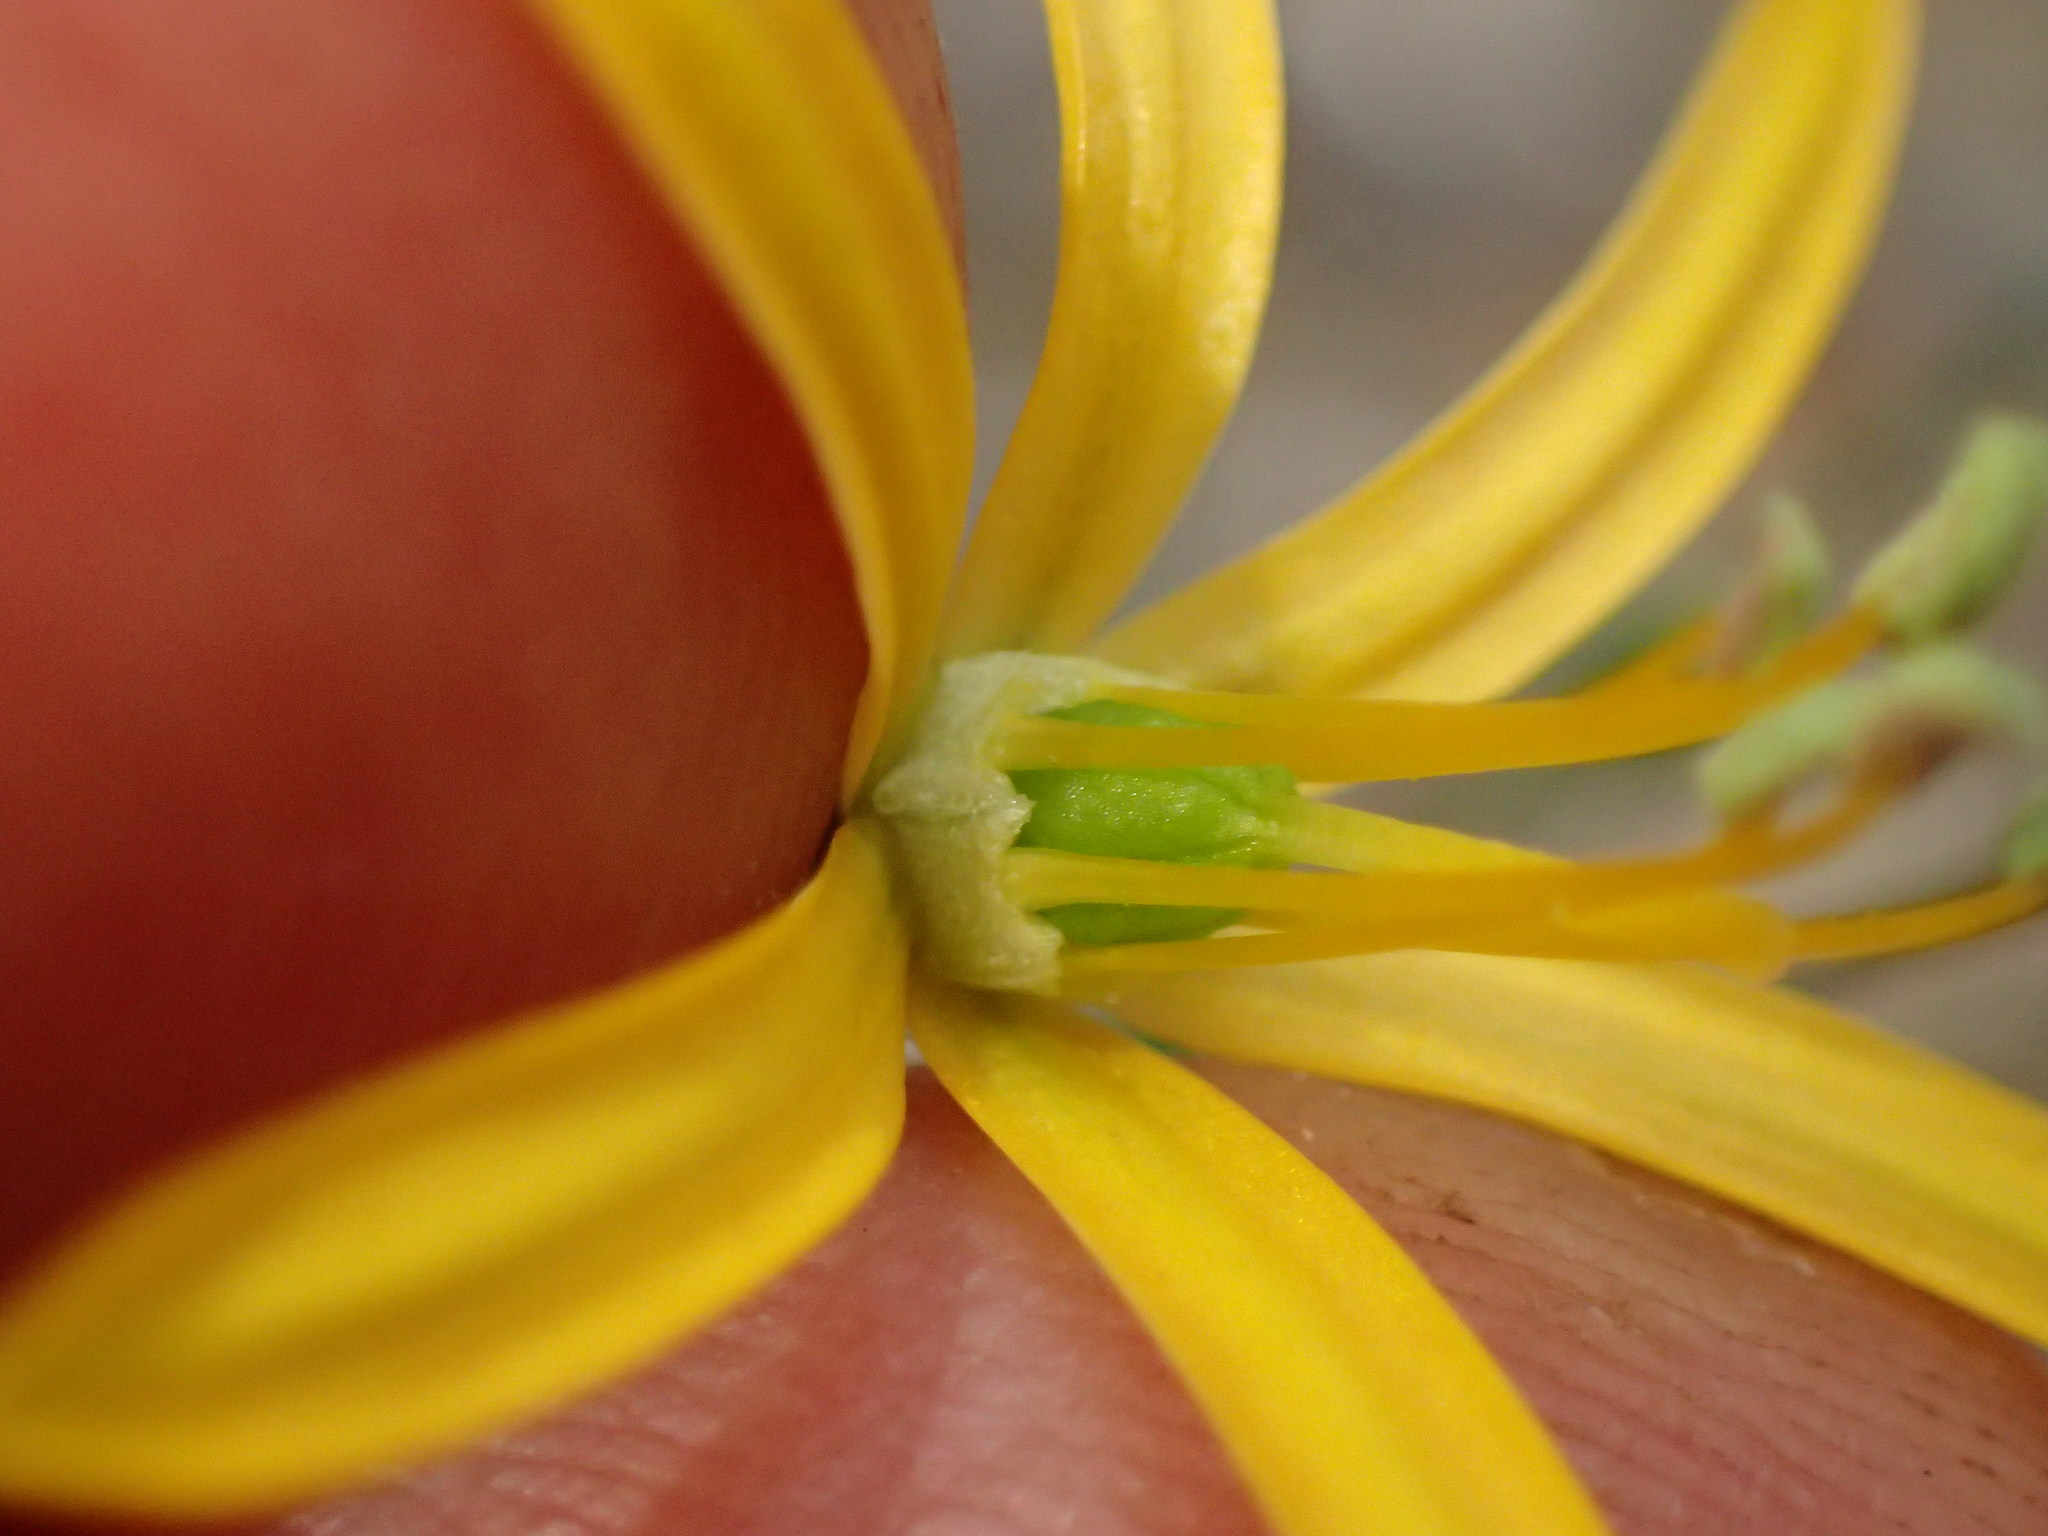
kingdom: Plantae
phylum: Tracheophyta
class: Liliopsida
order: Asparagales
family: Asparagaceae
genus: Bloomeria
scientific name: Bloomeria crocea
